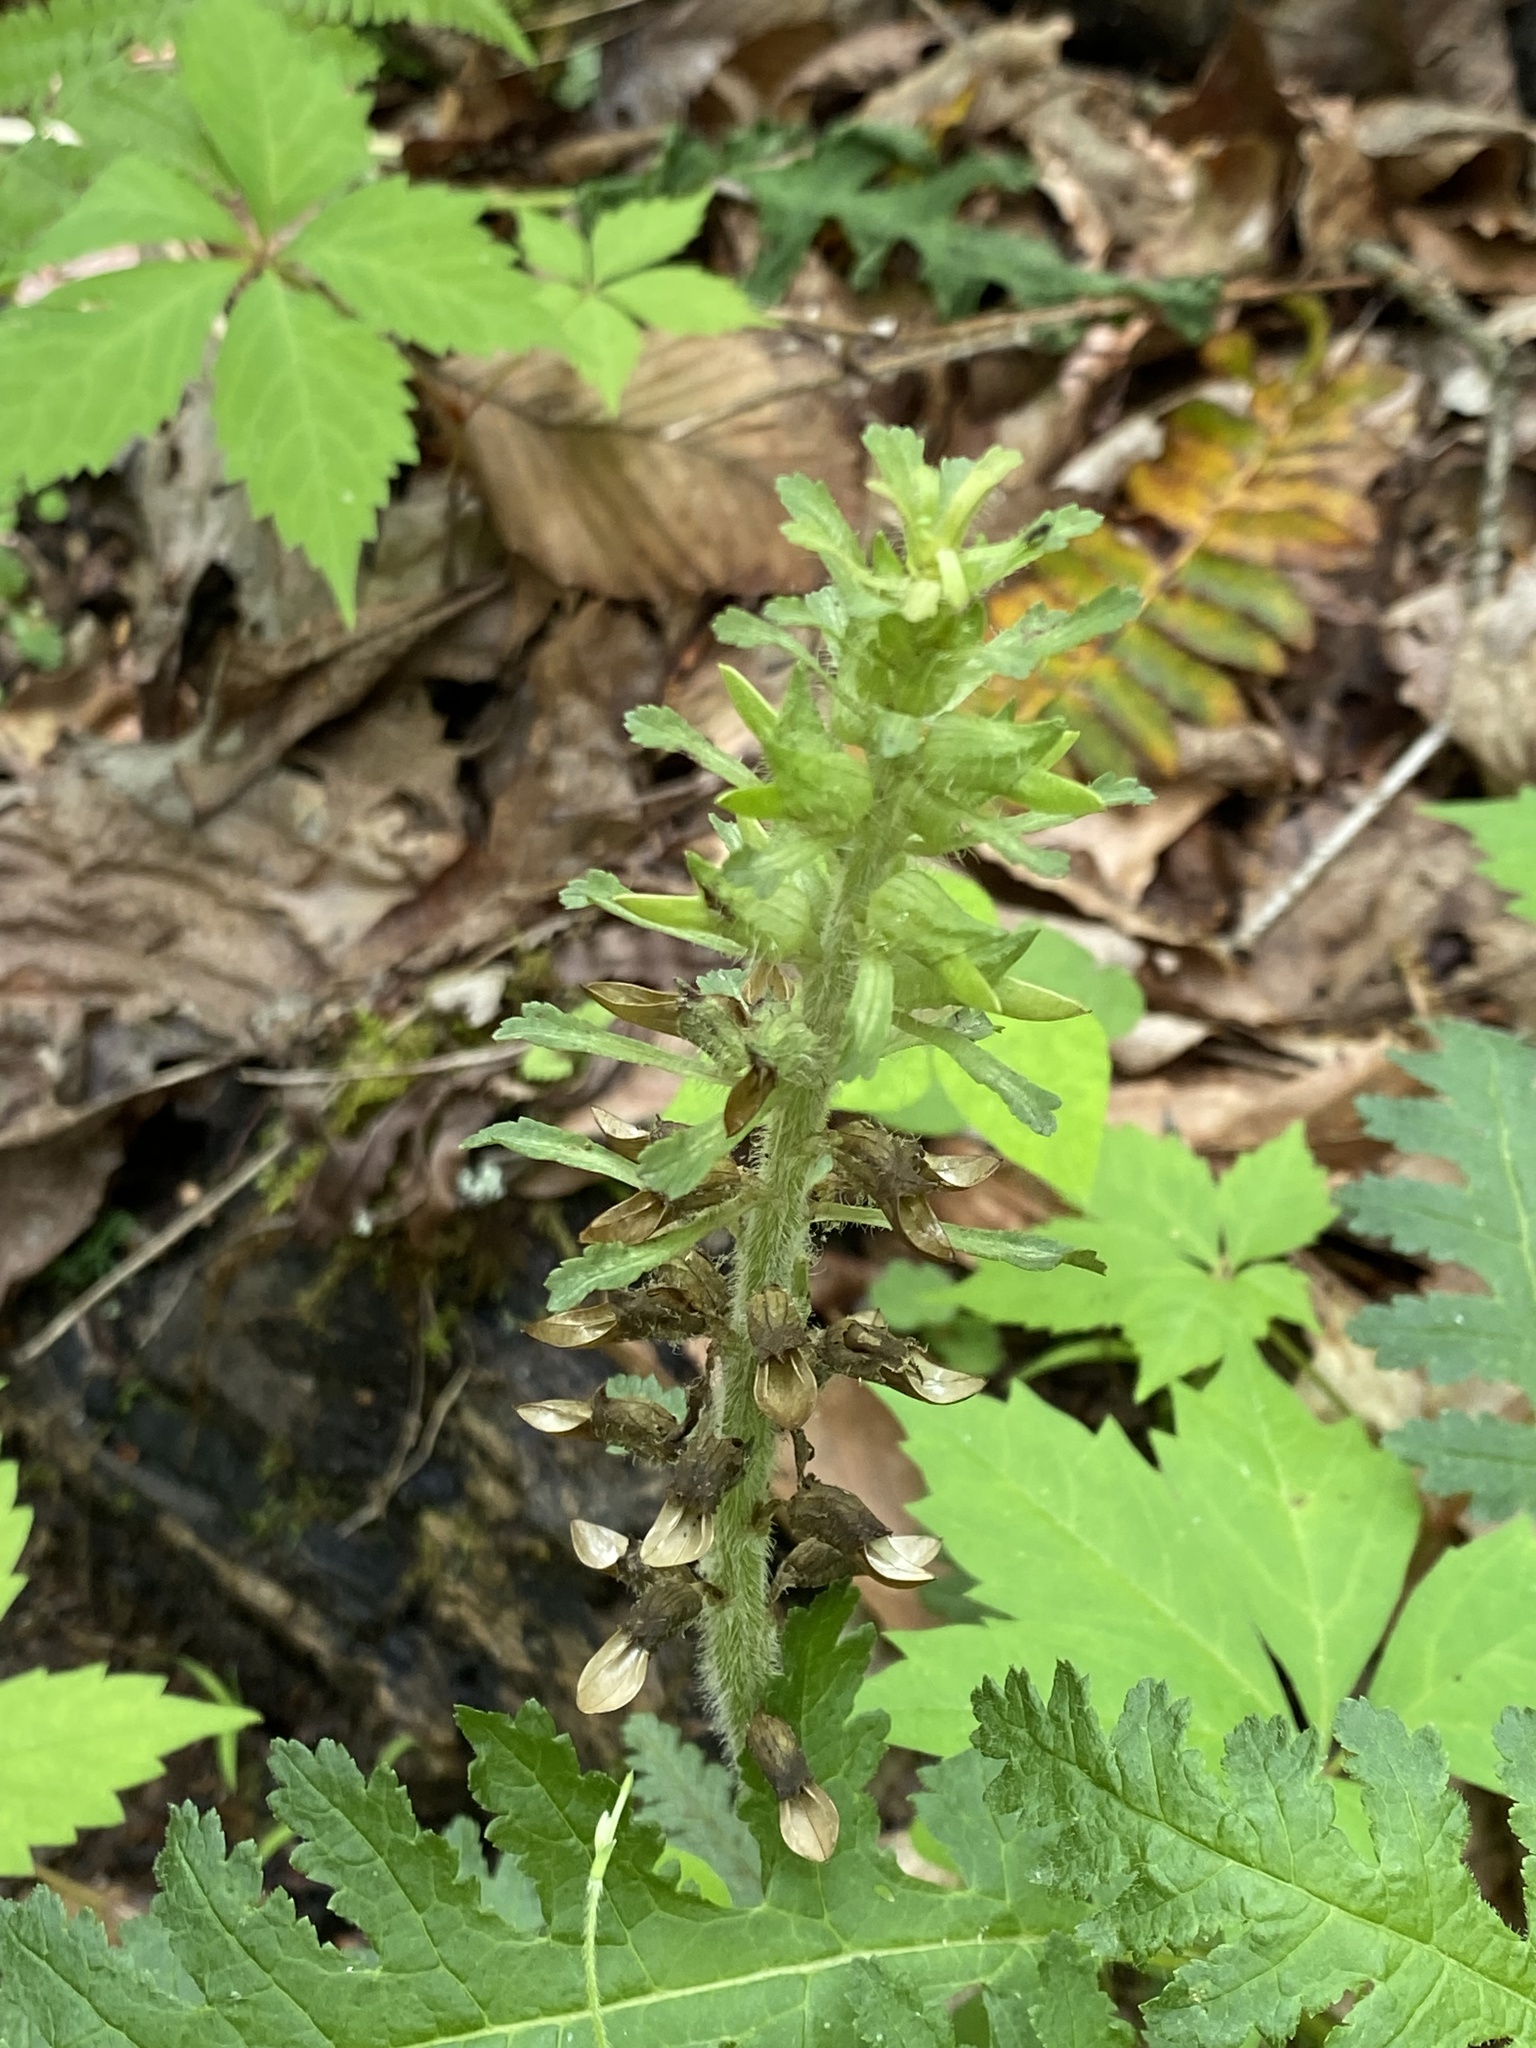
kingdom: Plantae
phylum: Tracheophyta
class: Magnoliopsida
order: Lamiales
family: Orobanchaceae
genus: Pedicularis
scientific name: Pedicularis canadensis
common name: Early lousewort
